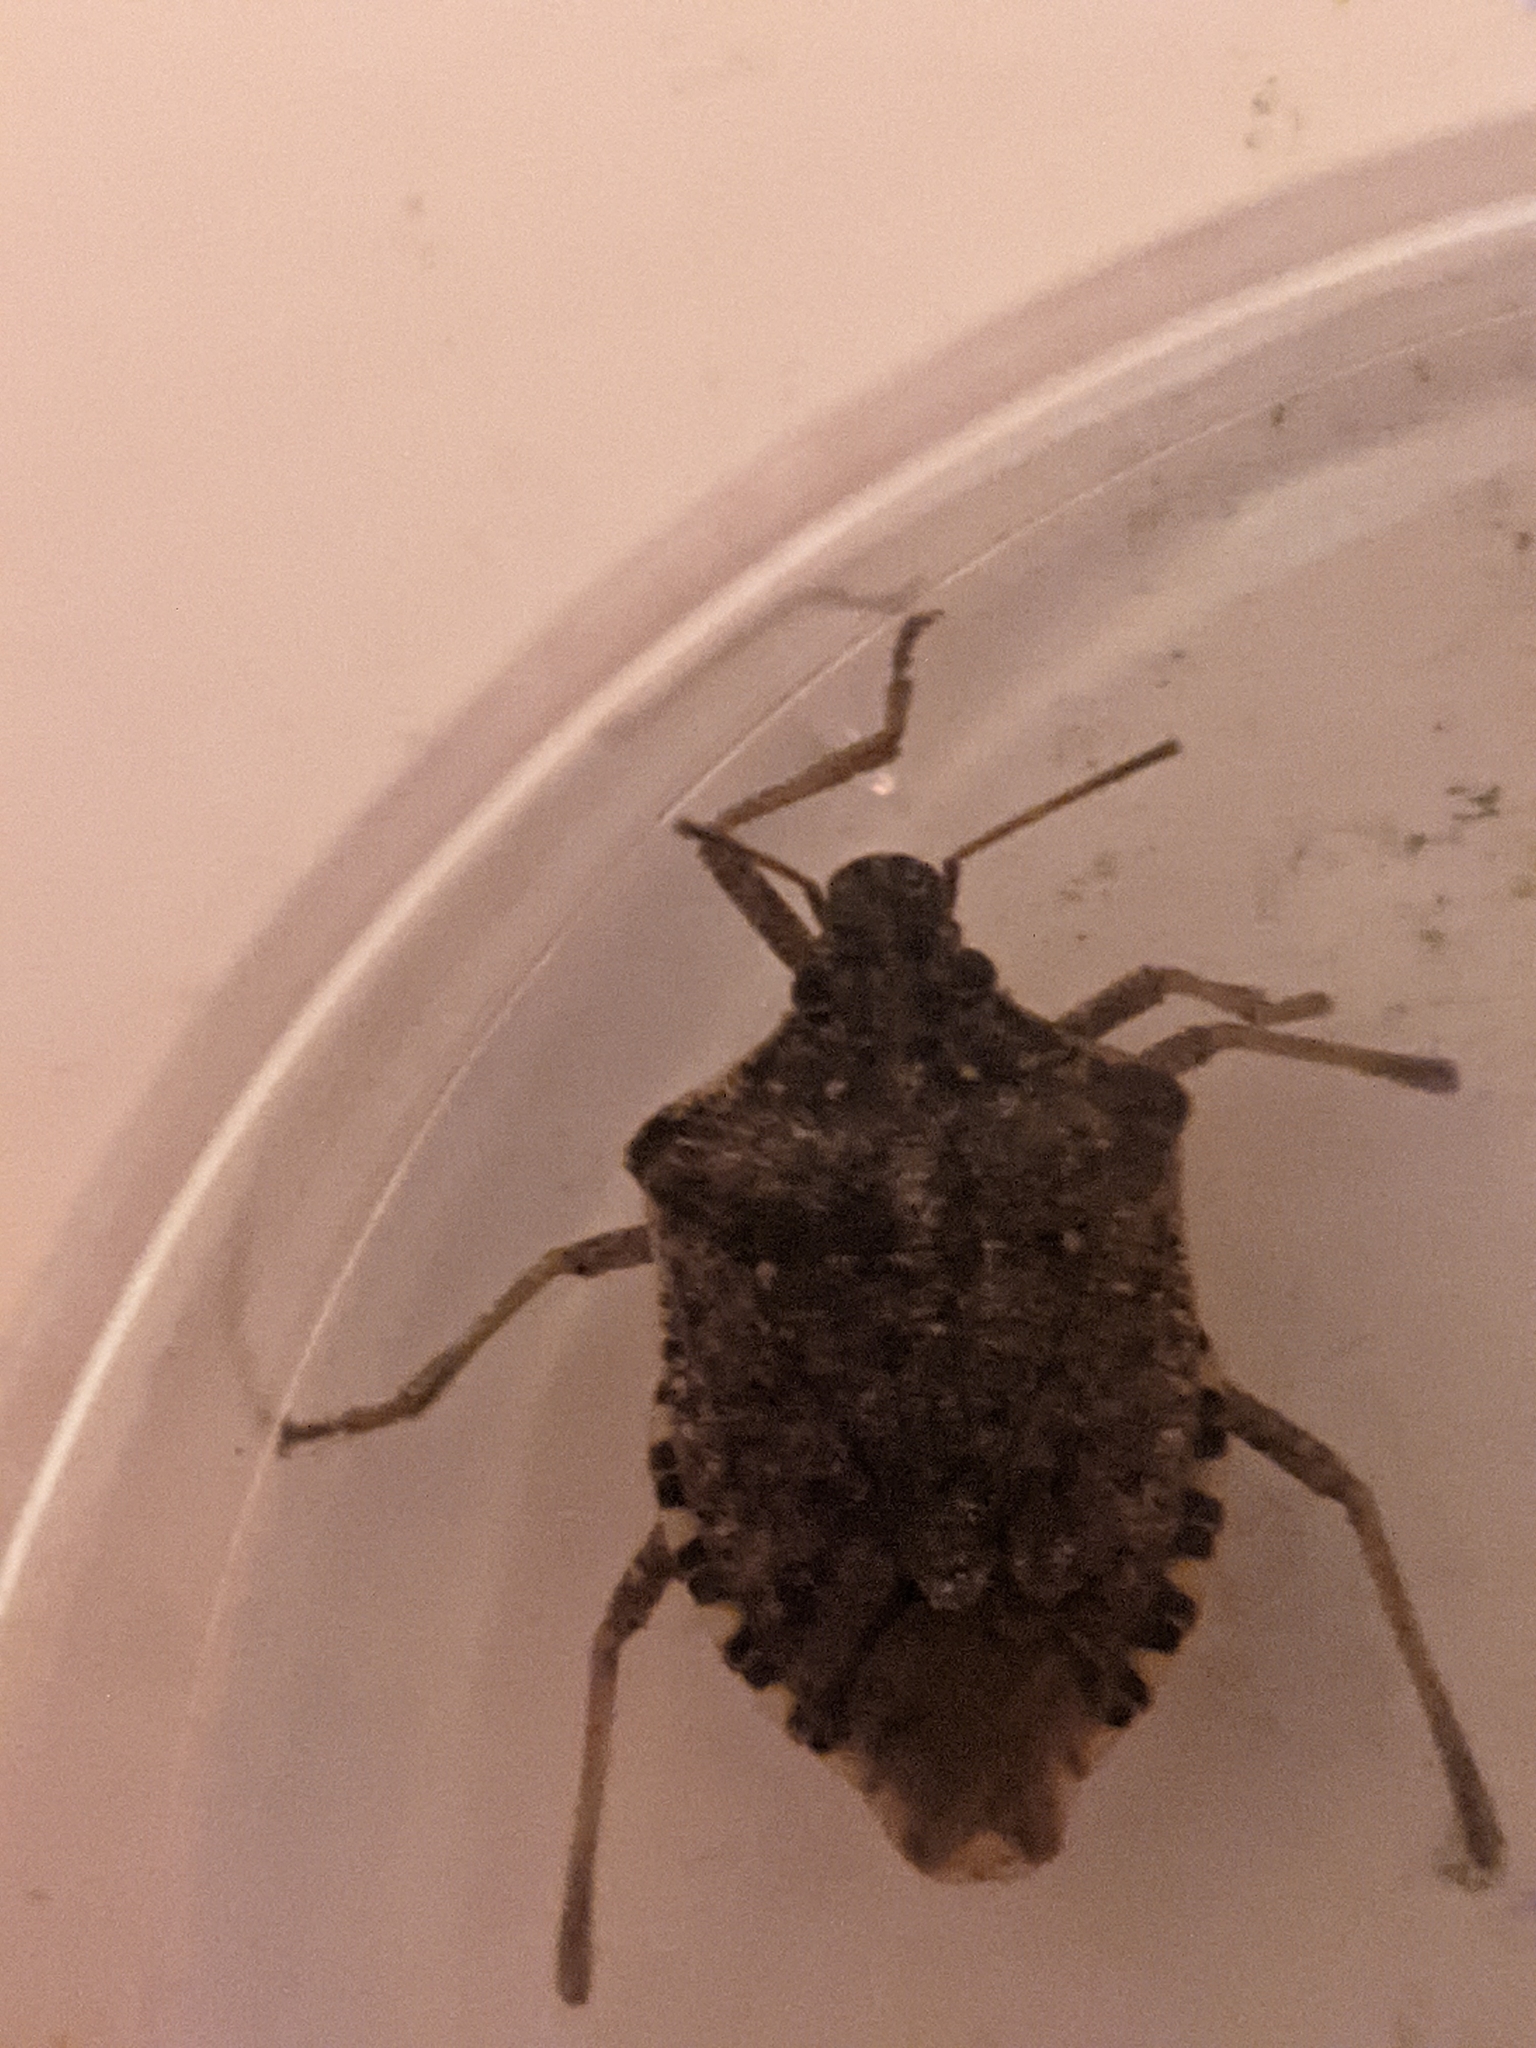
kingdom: Animalia
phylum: Arthropoda
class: Insecta
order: Hemiptera
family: Pentatomidae
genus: Halyomorpha
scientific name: Halyomorpha halys
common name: Brown marmorated stink bug
